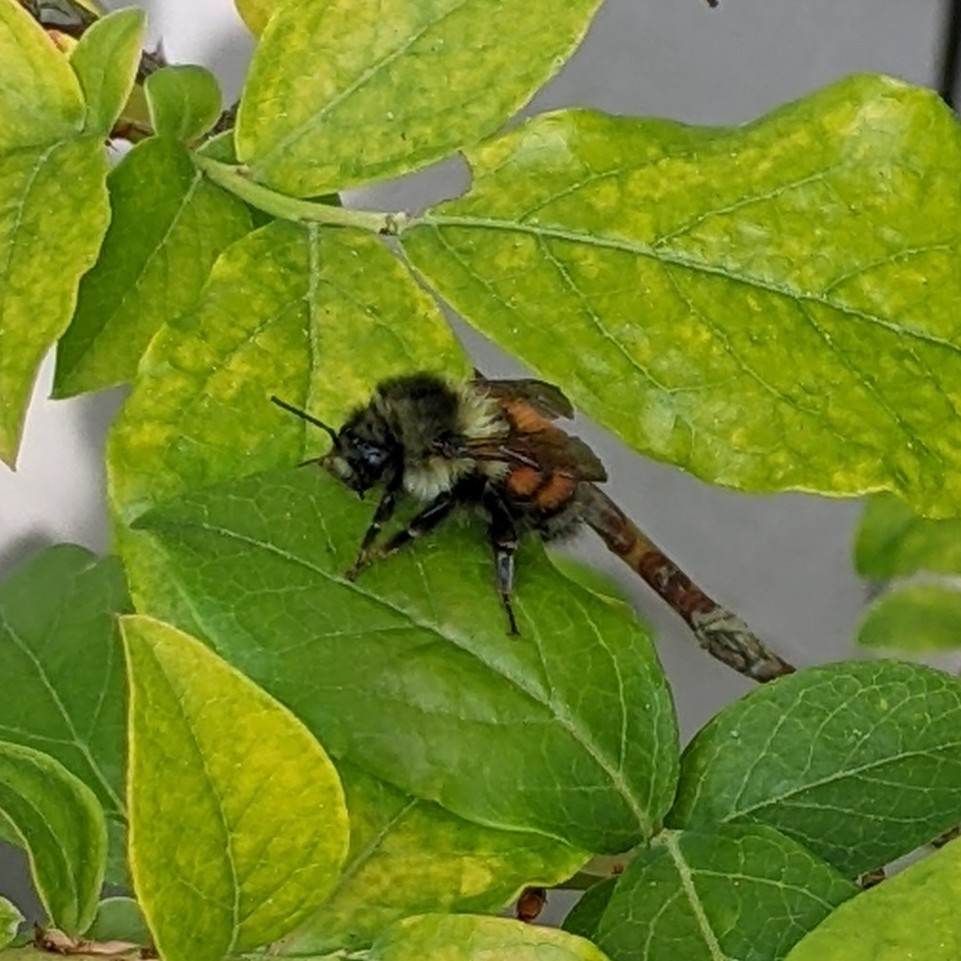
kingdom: Animalia
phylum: Arthropoda
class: Insecta
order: Hymenoptera
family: Apidae
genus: Bombus
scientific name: Bombus melanopygus
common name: Black tail bumble bee
